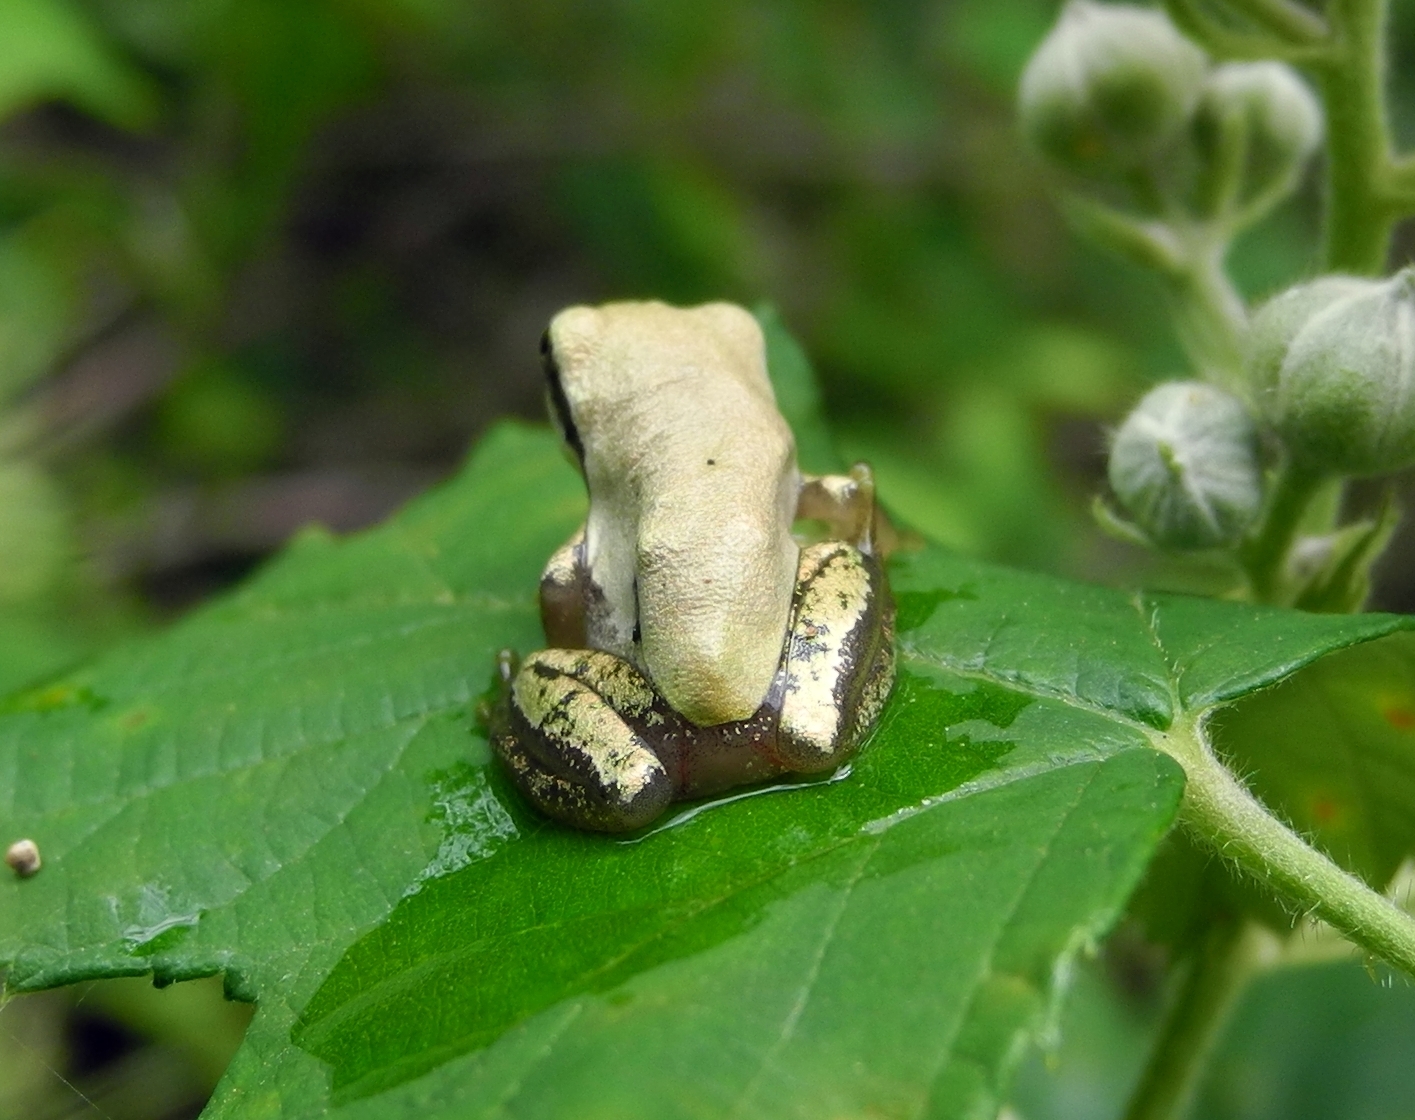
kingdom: Animalia
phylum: Chordata
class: Amphibia
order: Anura
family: Hylidae
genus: Hyla
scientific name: Hyla orientalis
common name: Caucasian treefrog
